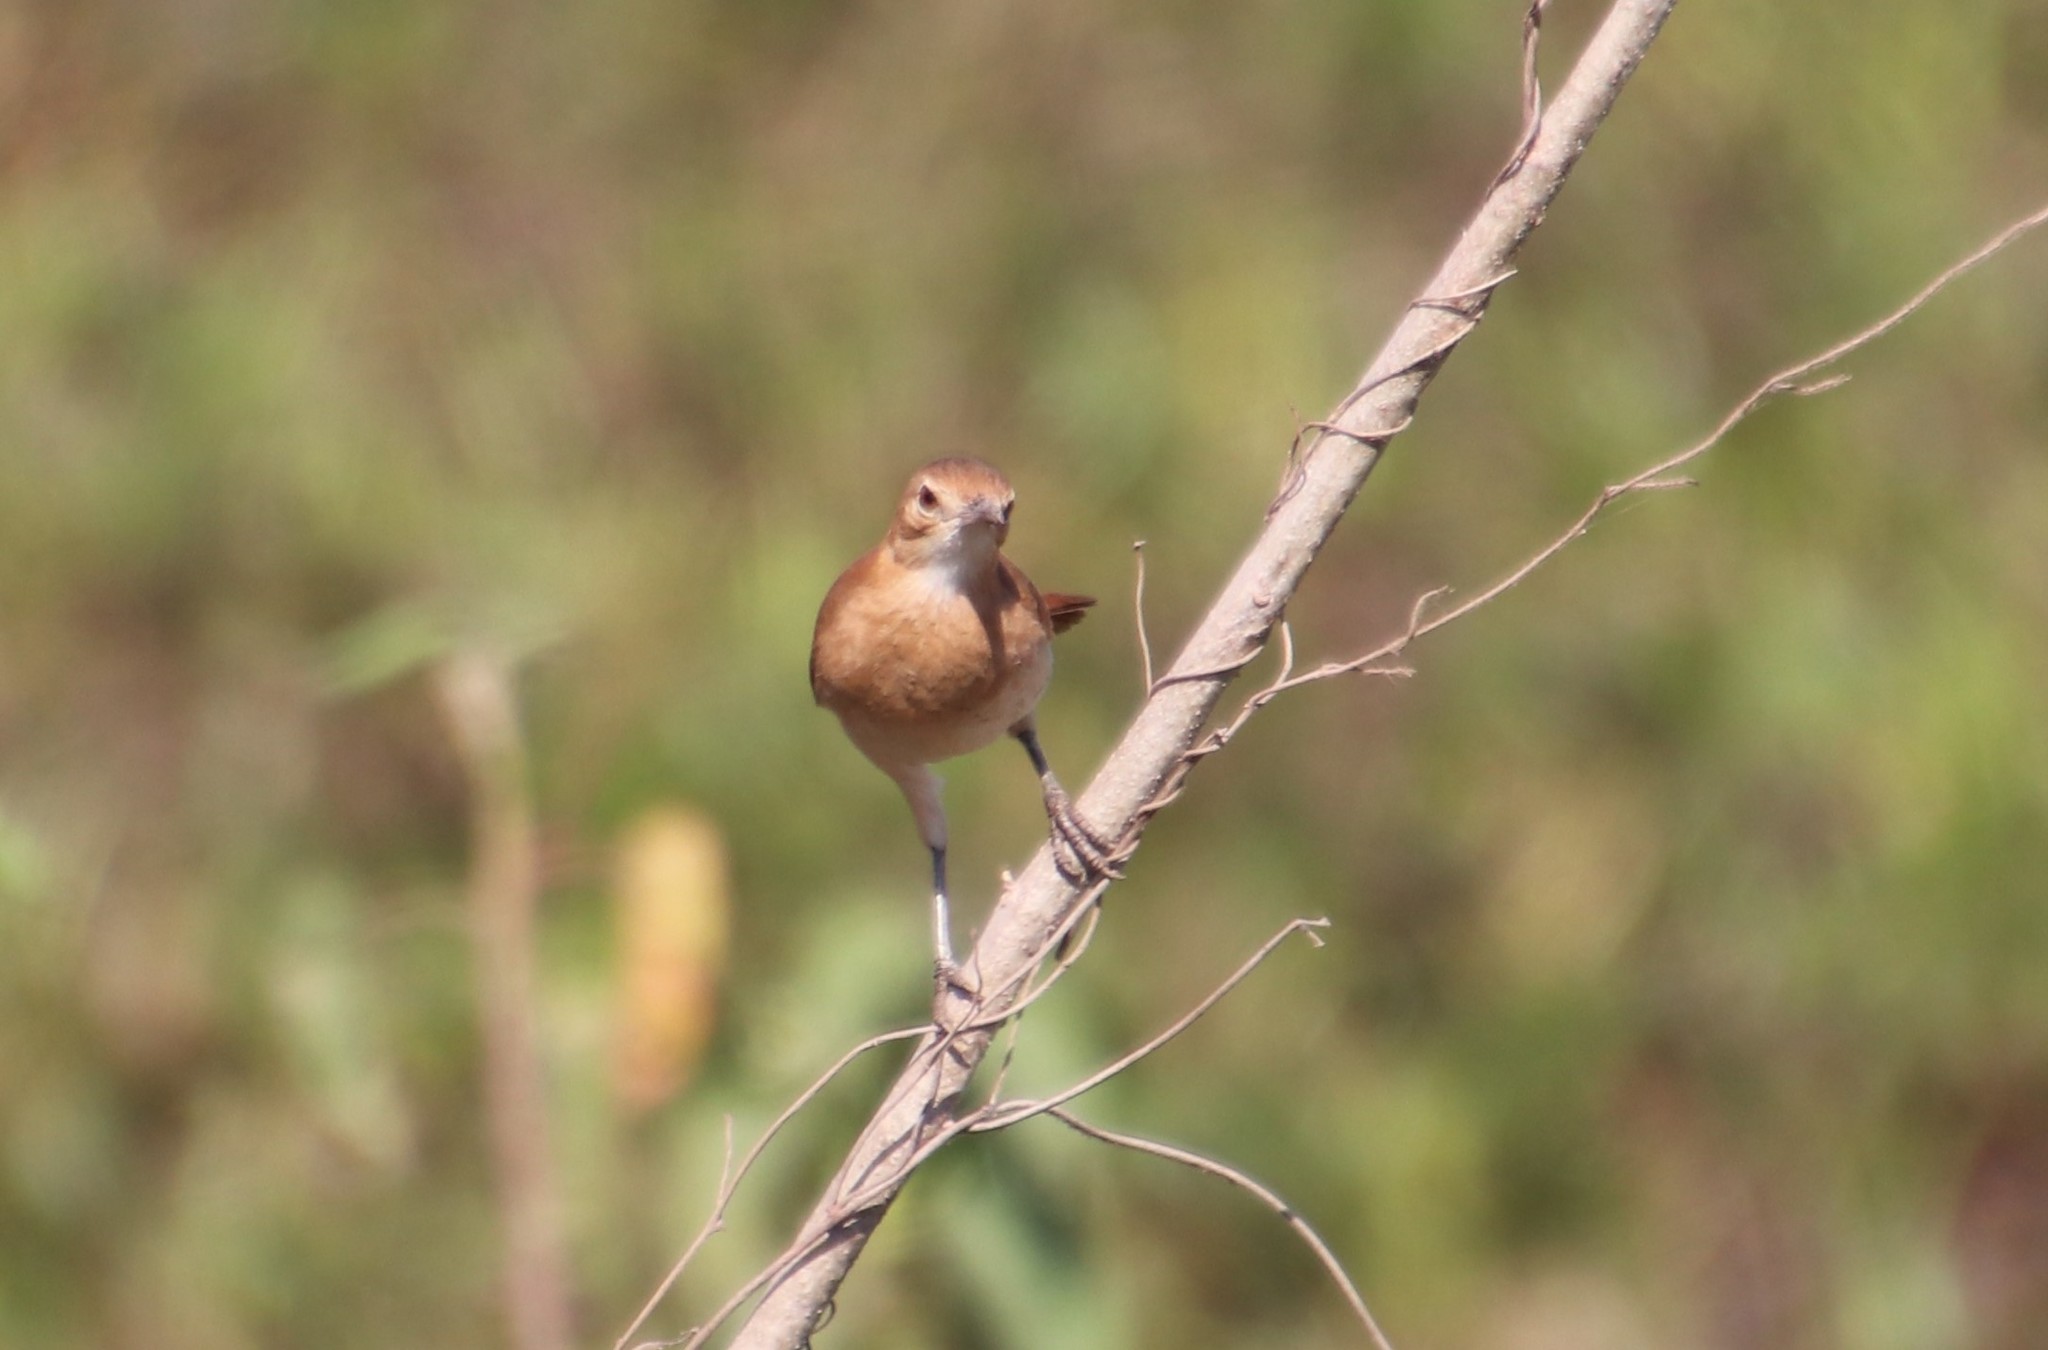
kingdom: Animalia
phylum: Chordata
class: Aves
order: Passeriformes
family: Furnariidae
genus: Furnarius
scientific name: Furnarius rufus
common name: Rufous hornero
